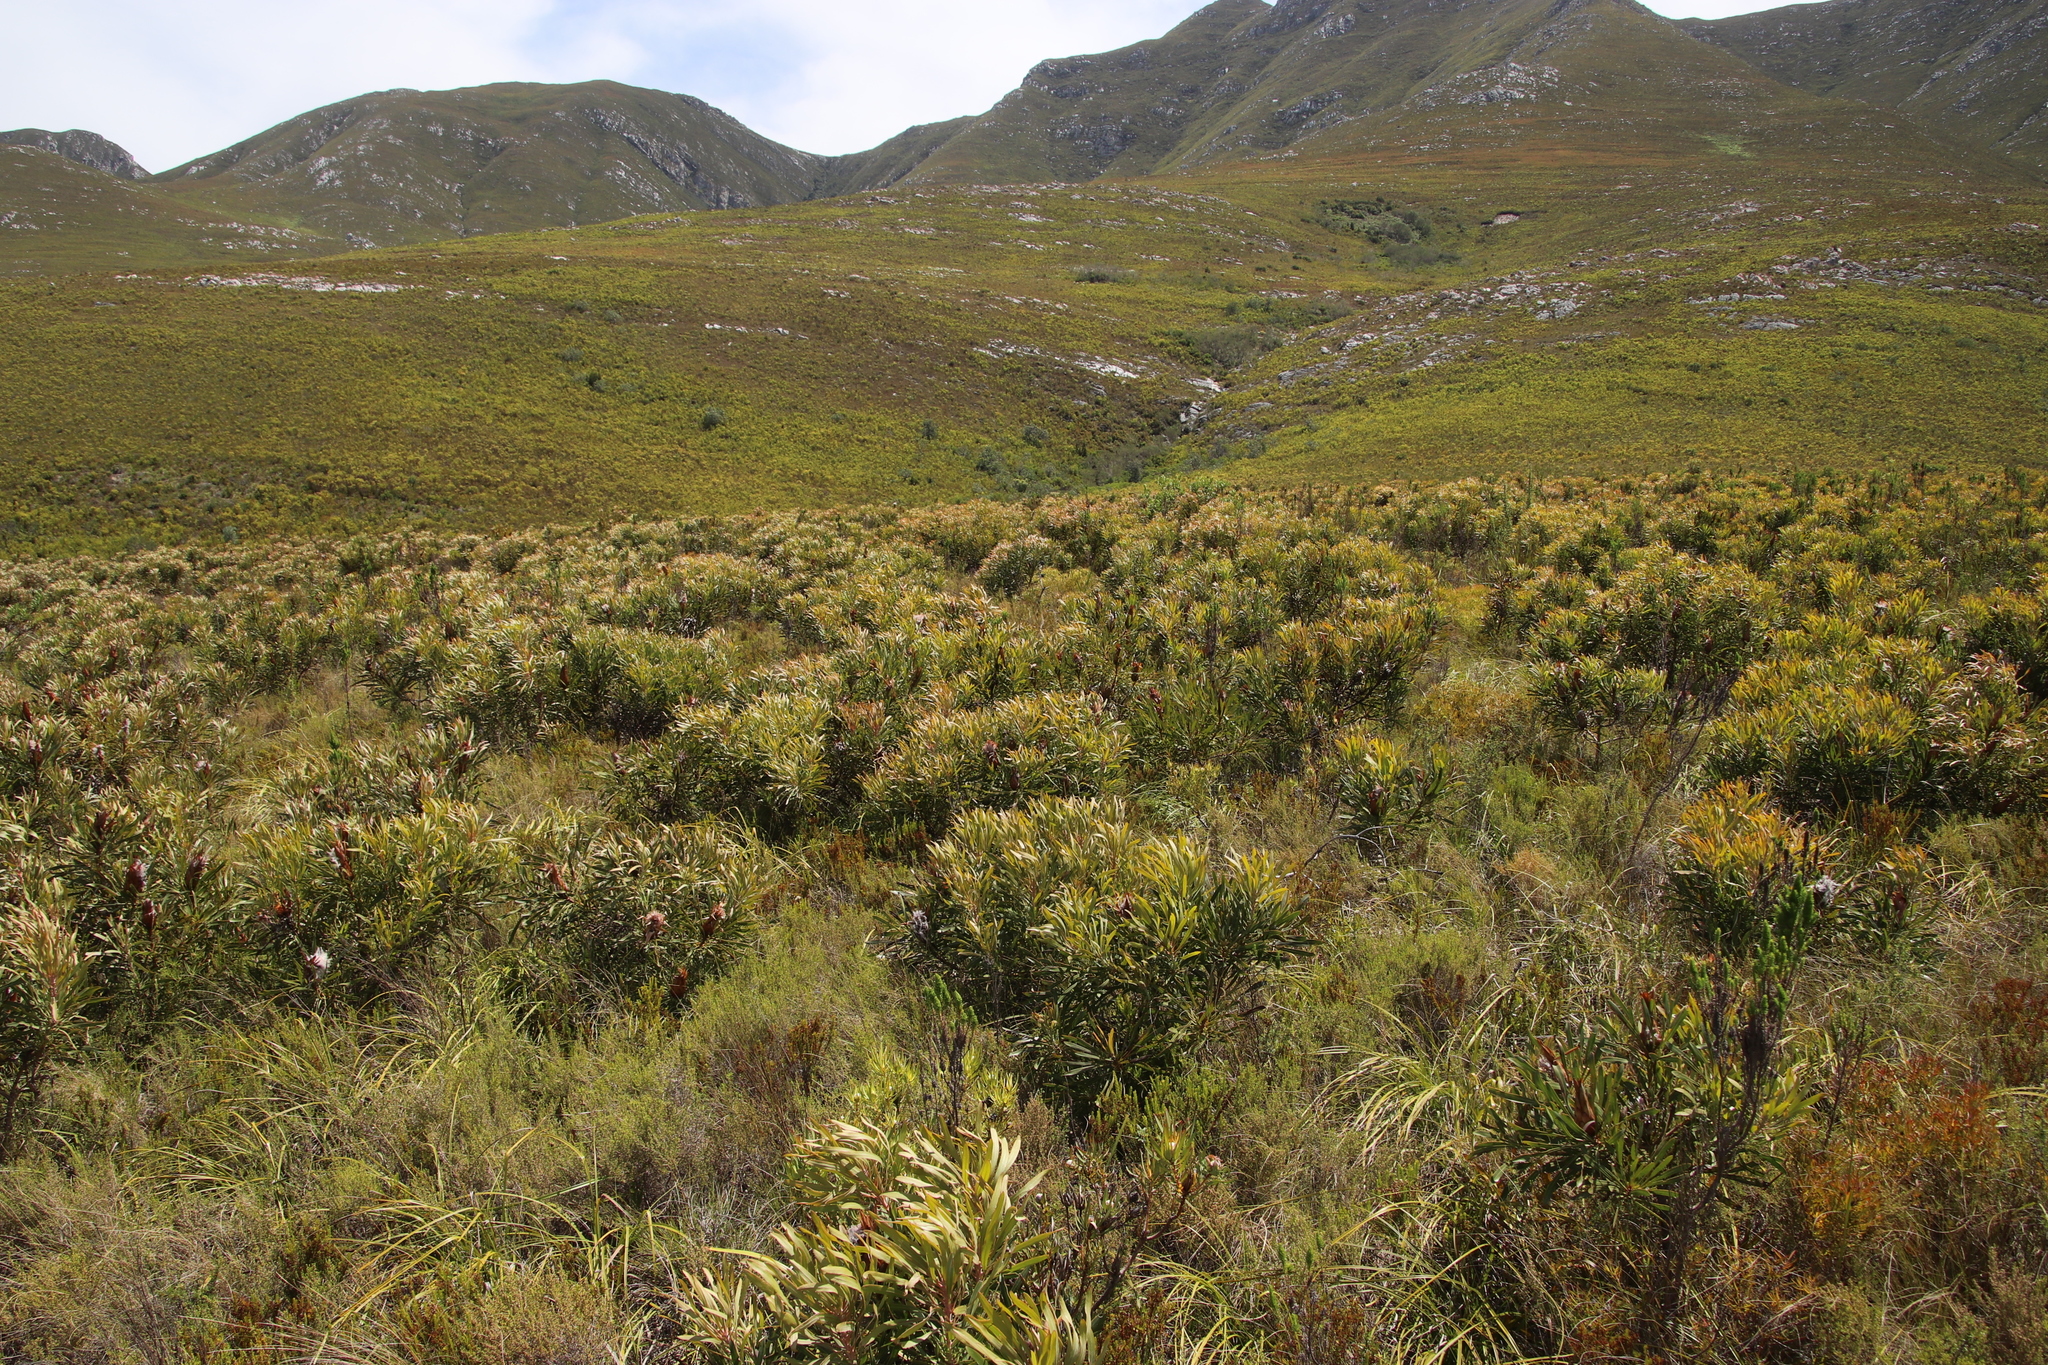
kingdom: Plantae
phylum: Tracheophyta
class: Magnoliopsida
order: Proteales
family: Proteaceae
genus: Protea
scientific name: Protea longifolia
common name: Long-leaf sugarbush
